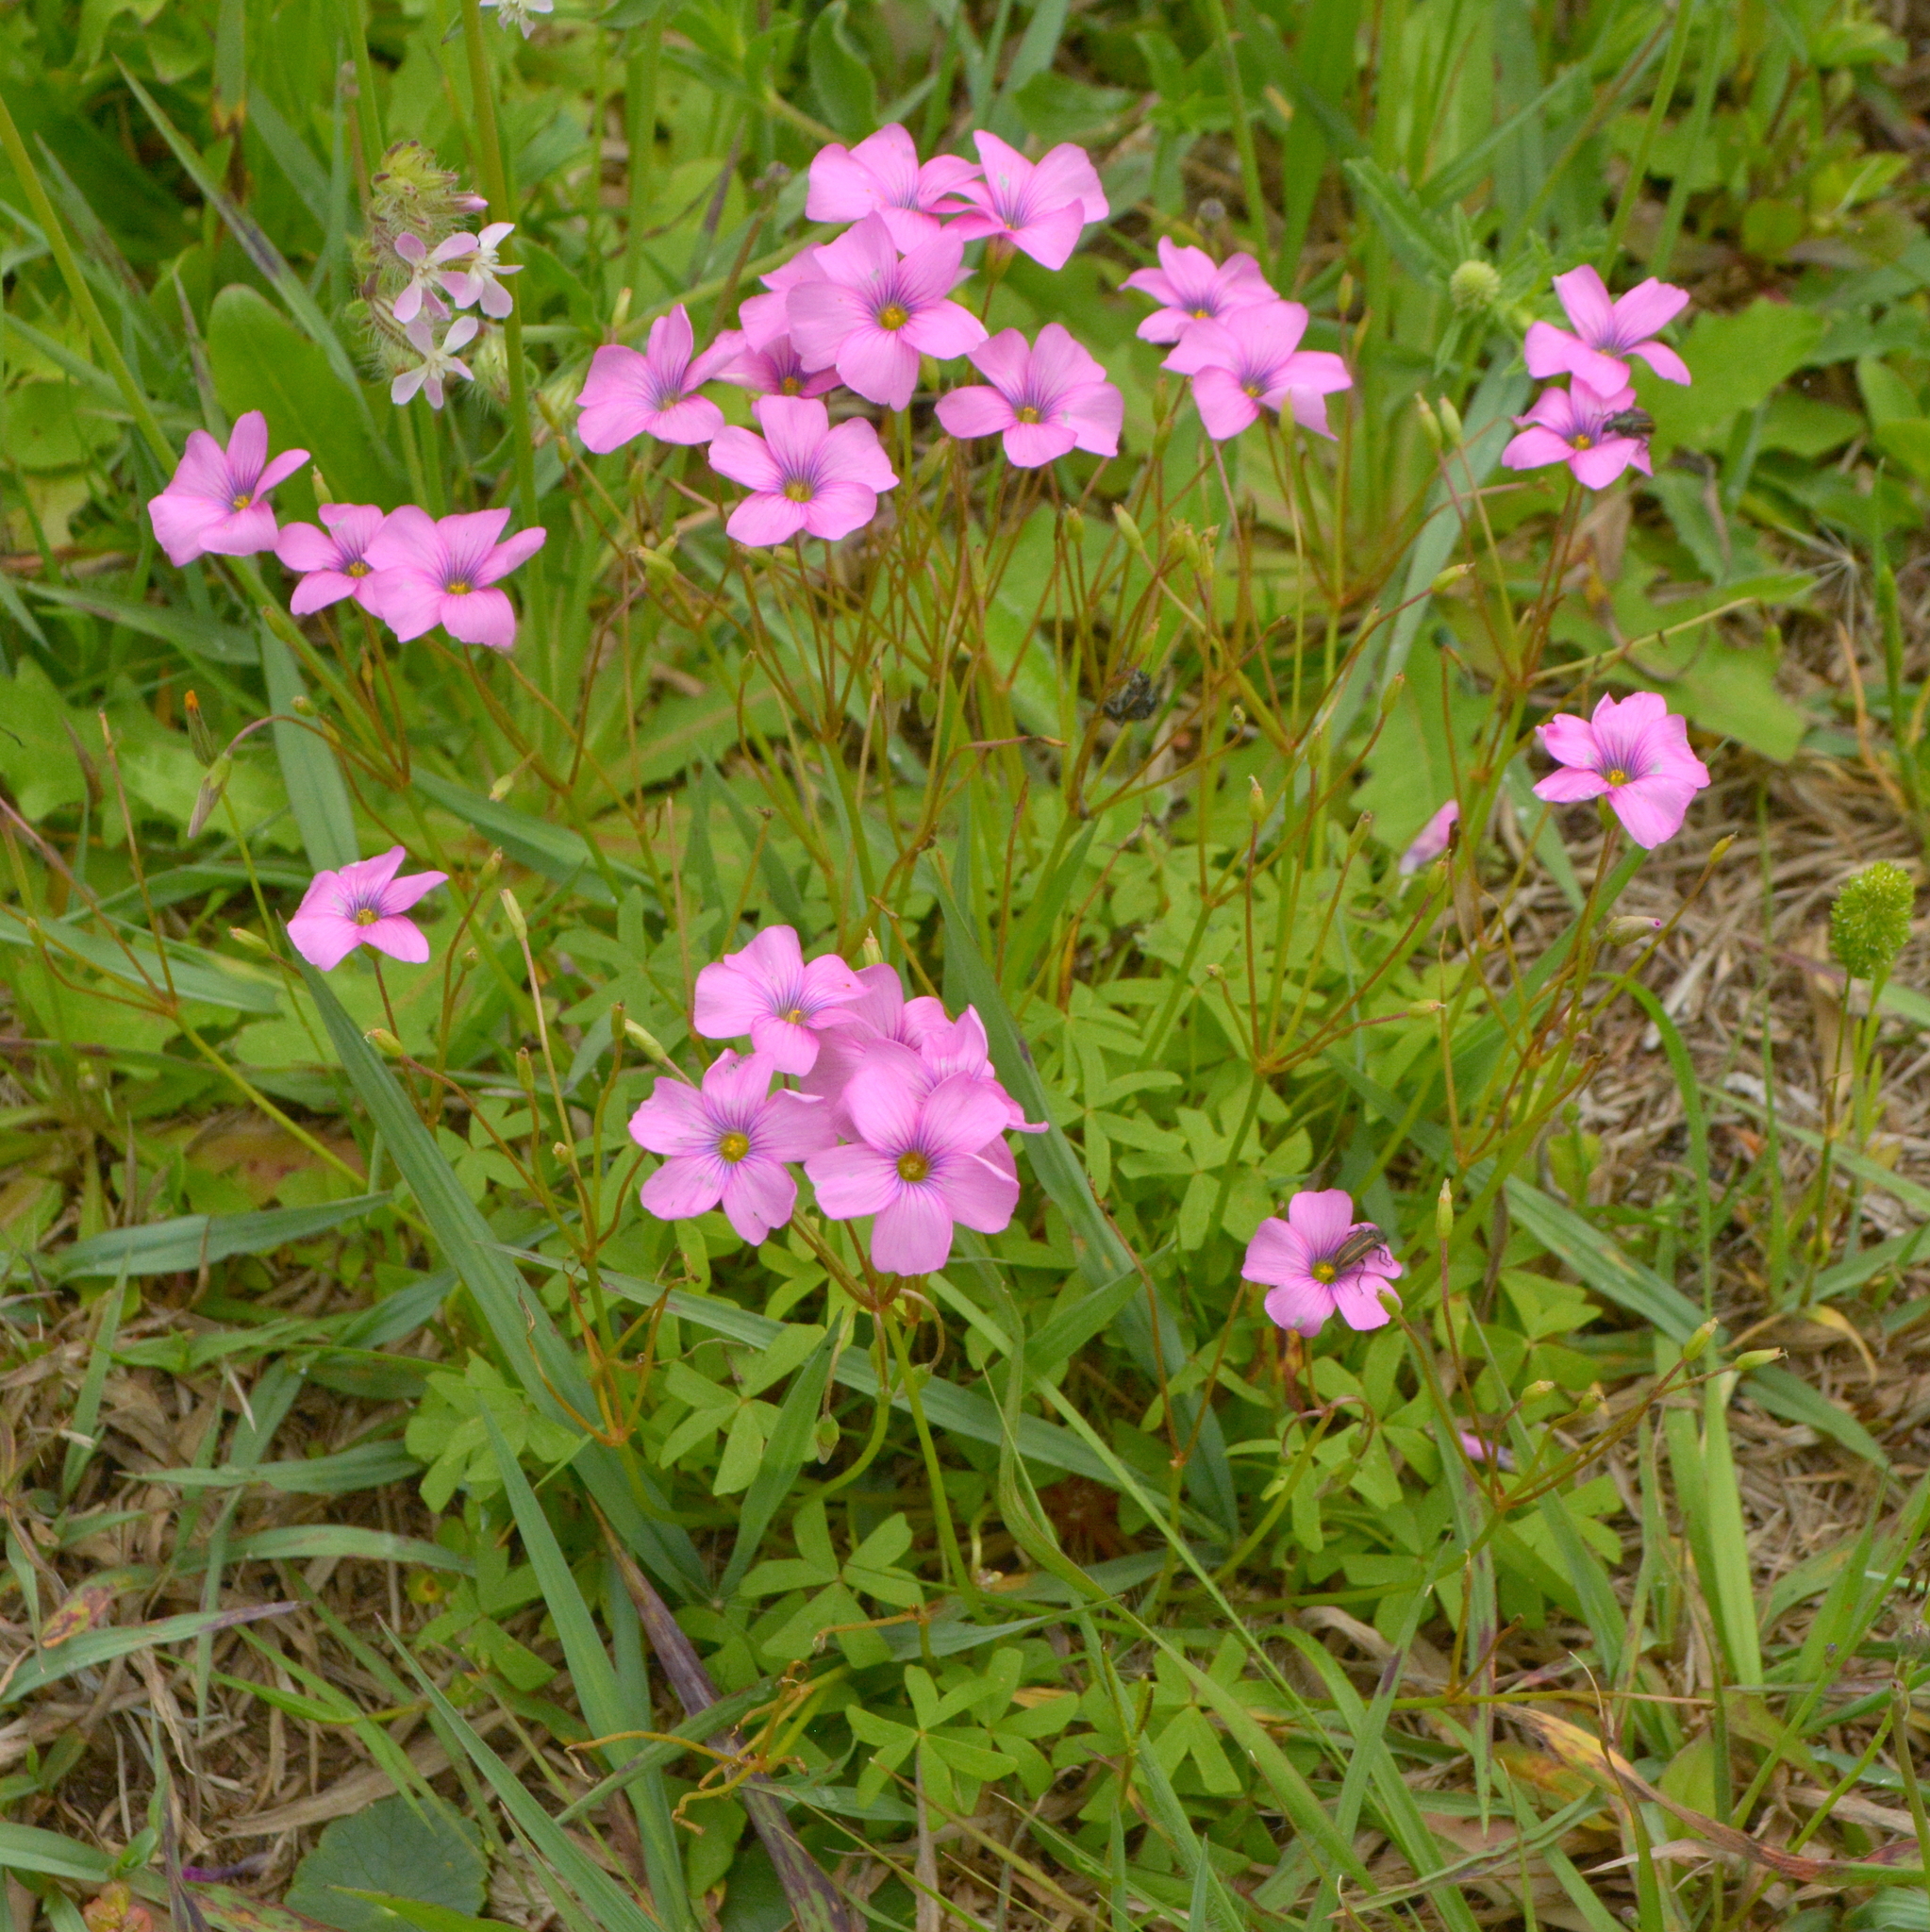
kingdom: Plantae
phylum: Tracheophyta
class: Magnoliopsida
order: Oxalidales
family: Oxalidaceae
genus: Oxalis
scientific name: Oxalis bipartita
